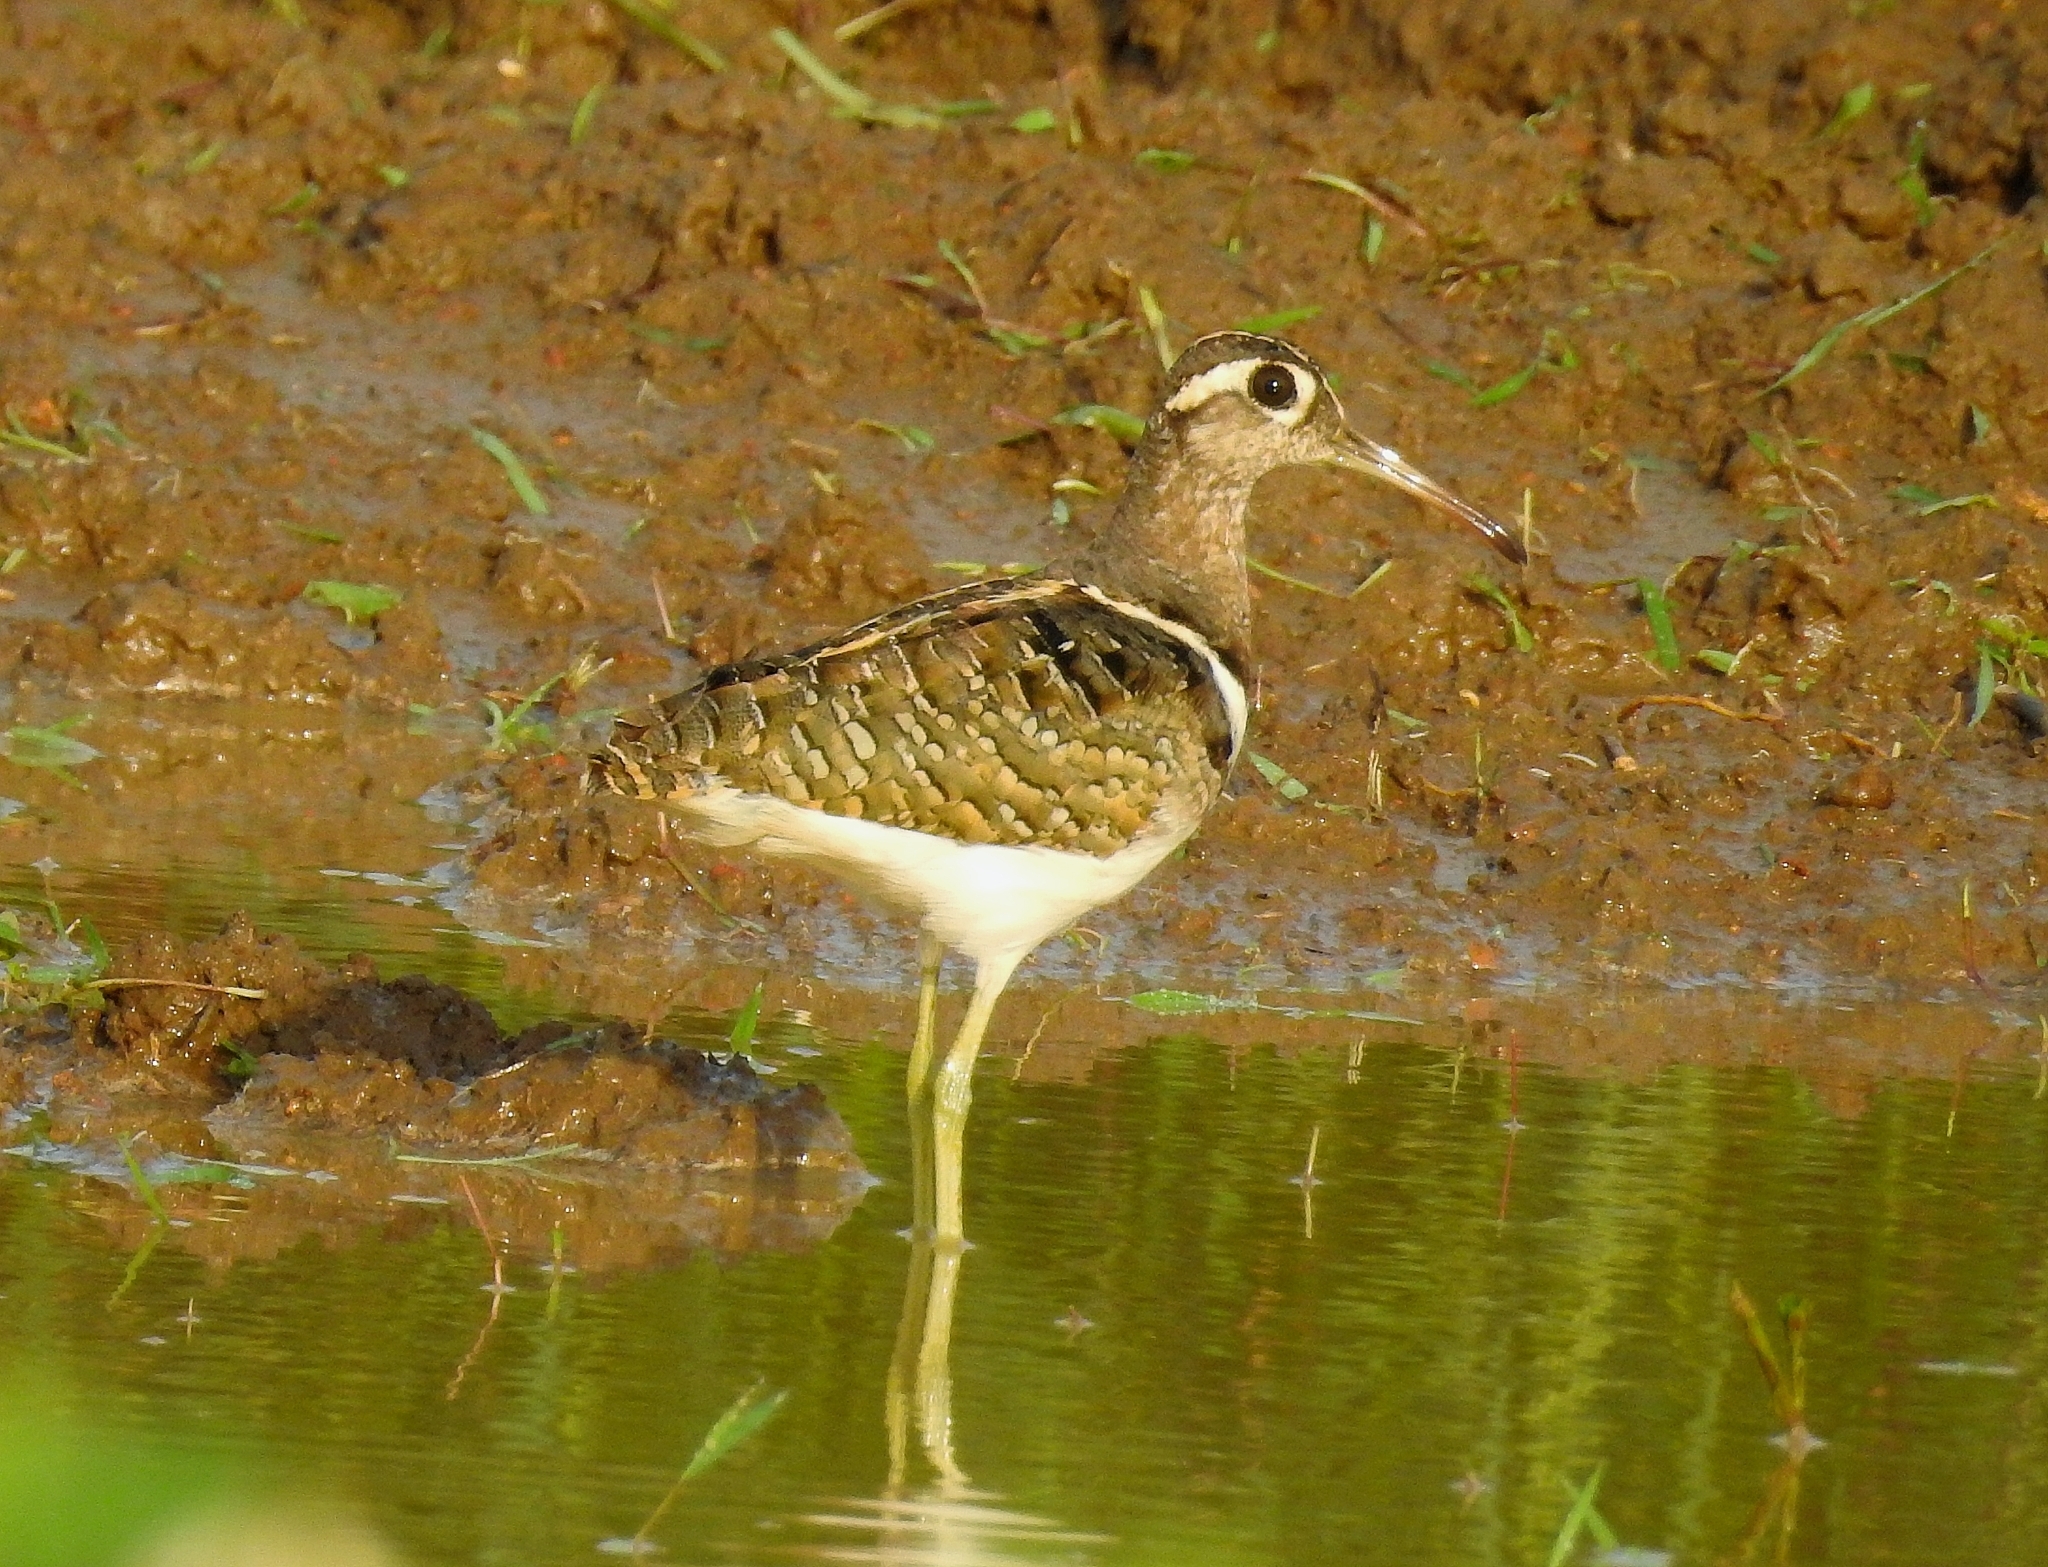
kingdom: Animalia
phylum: Chordata
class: Aves
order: Charadriiformes
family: Rostratulidae
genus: Rostratula
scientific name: Rostratula benghalensis
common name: Greater painted-snipe
